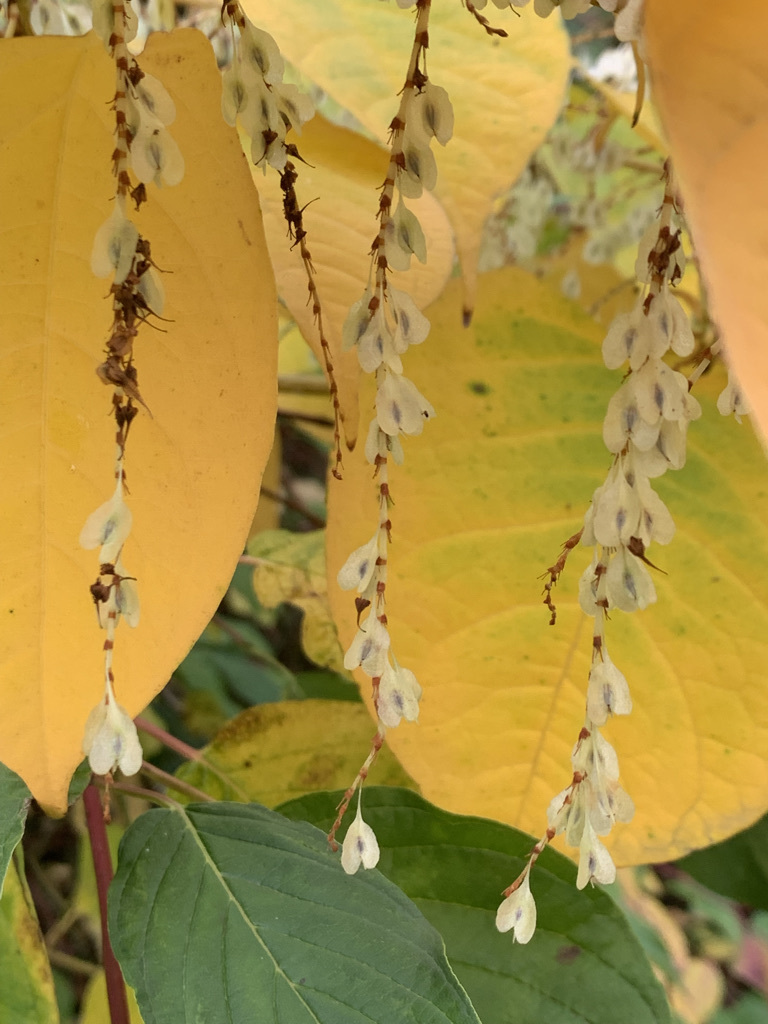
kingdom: Plantae
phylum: Tracheophyta
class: Magnoliopsida
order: Caryophyllales
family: Polygonaceae
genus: Reynoutria
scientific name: Reynoutria japonica
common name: Japanese knotweed
